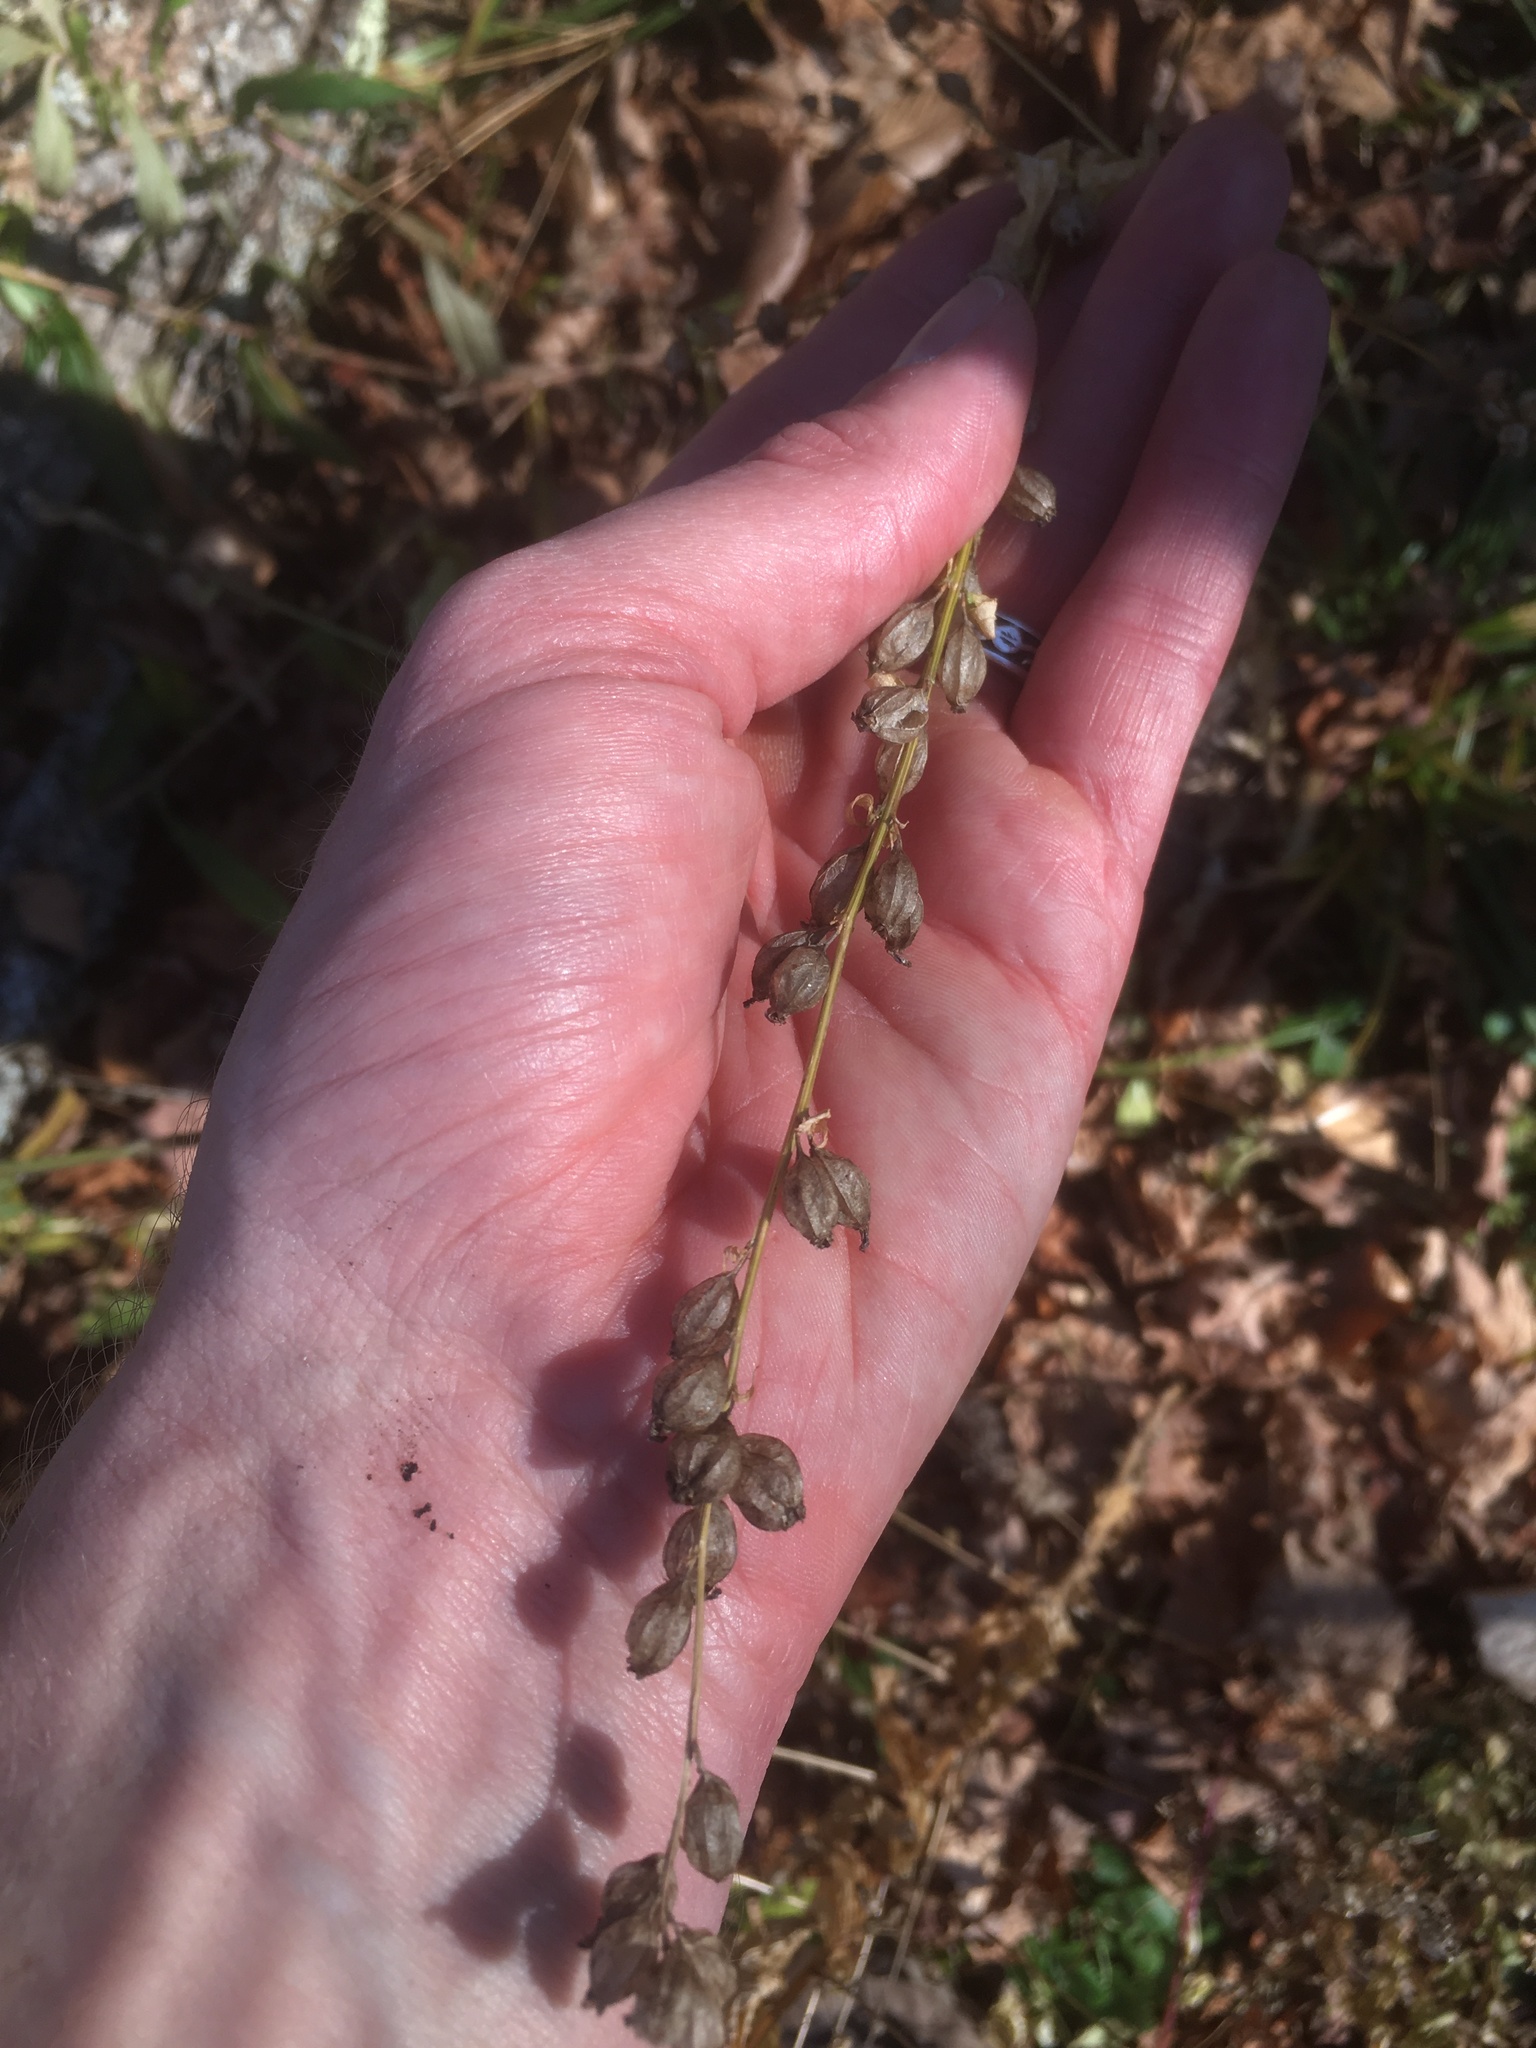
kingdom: Plantae
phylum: Tracheophyta
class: Magnoliopsida
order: Asterales
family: Campanulaceae
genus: Lobelia
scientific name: Lobelia inflata
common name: Indian tobacco
